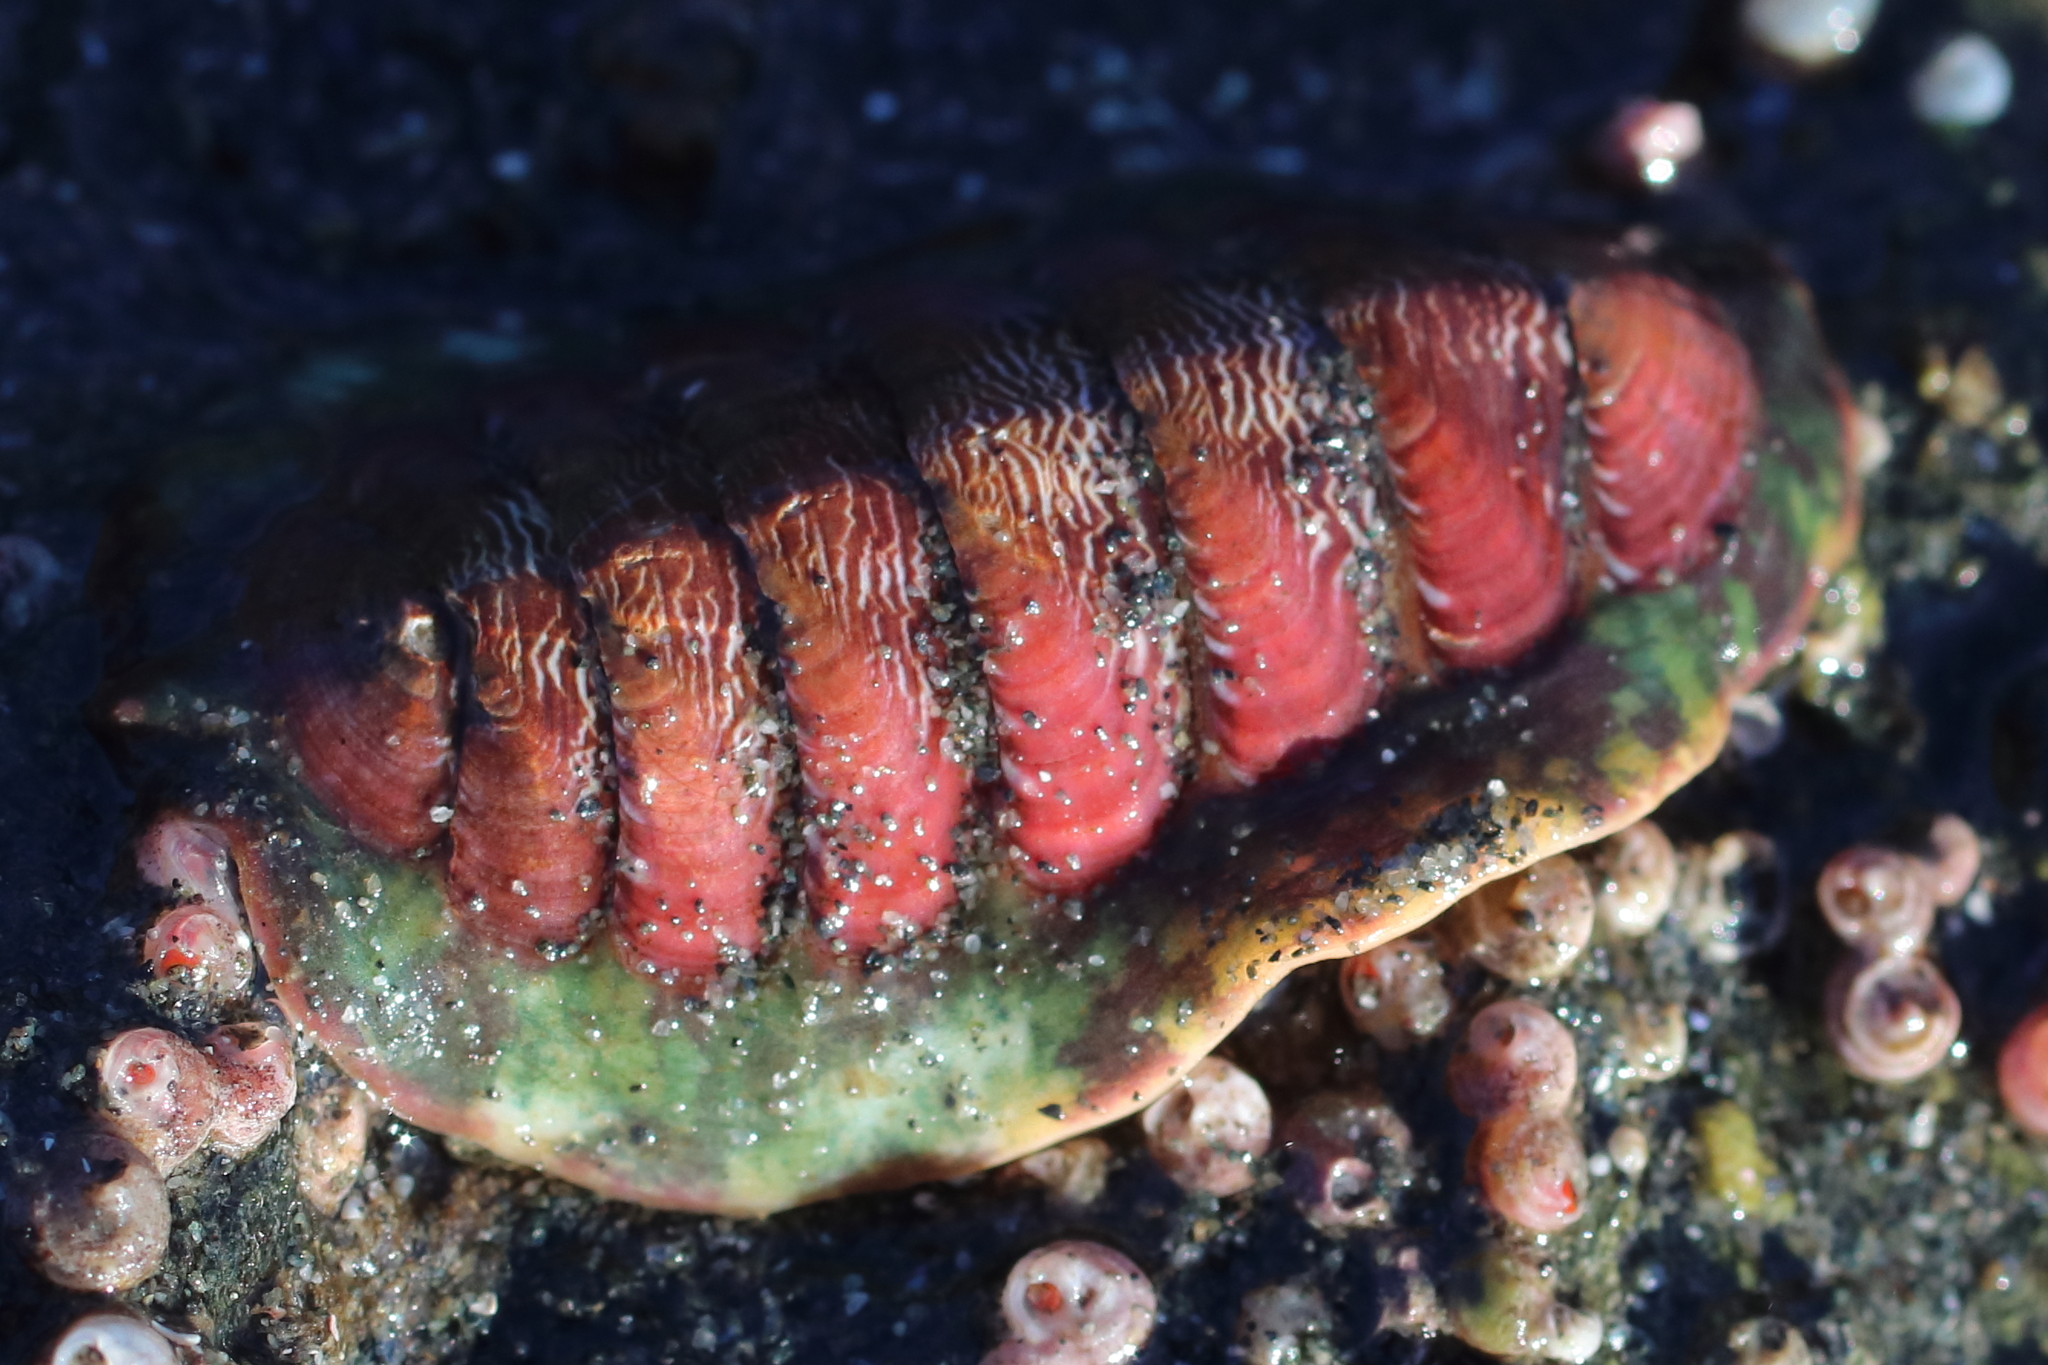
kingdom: Animalia
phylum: Mollusca
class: Polyplacophora
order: Chitonida
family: Tonicellidae
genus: Tonicella
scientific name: Tonicella insignis
